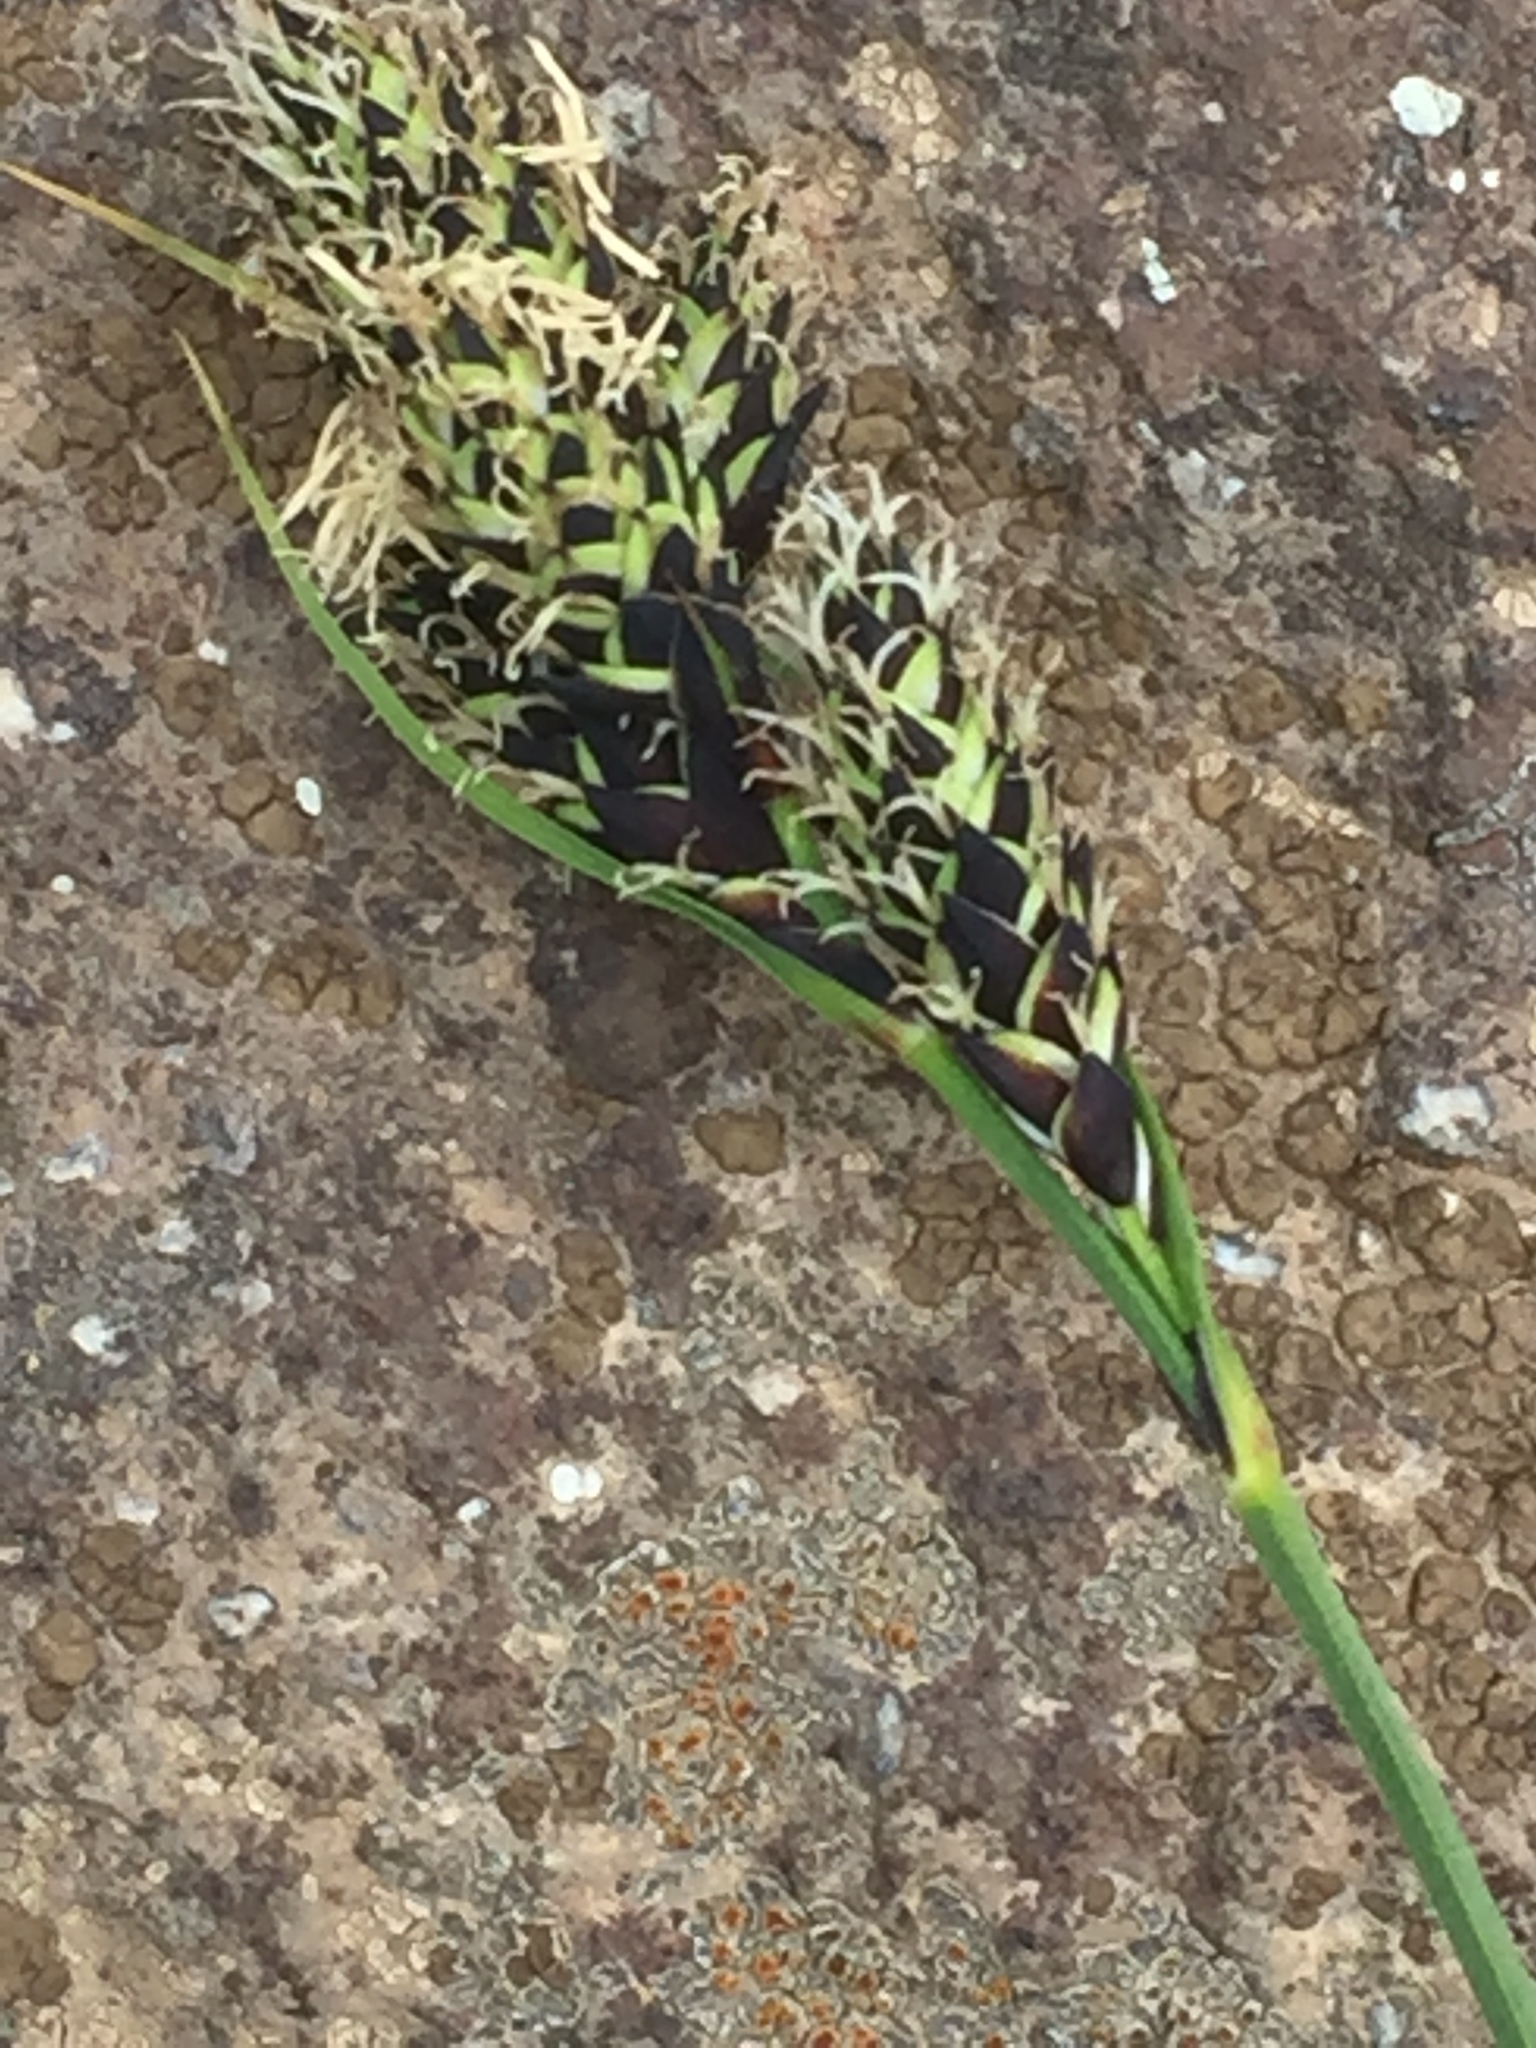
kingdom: Plantae
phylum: Tracheophyta
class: Liliopsida
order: Poales
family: Cyperaceae
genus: Carex
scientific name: Carex aterrima
